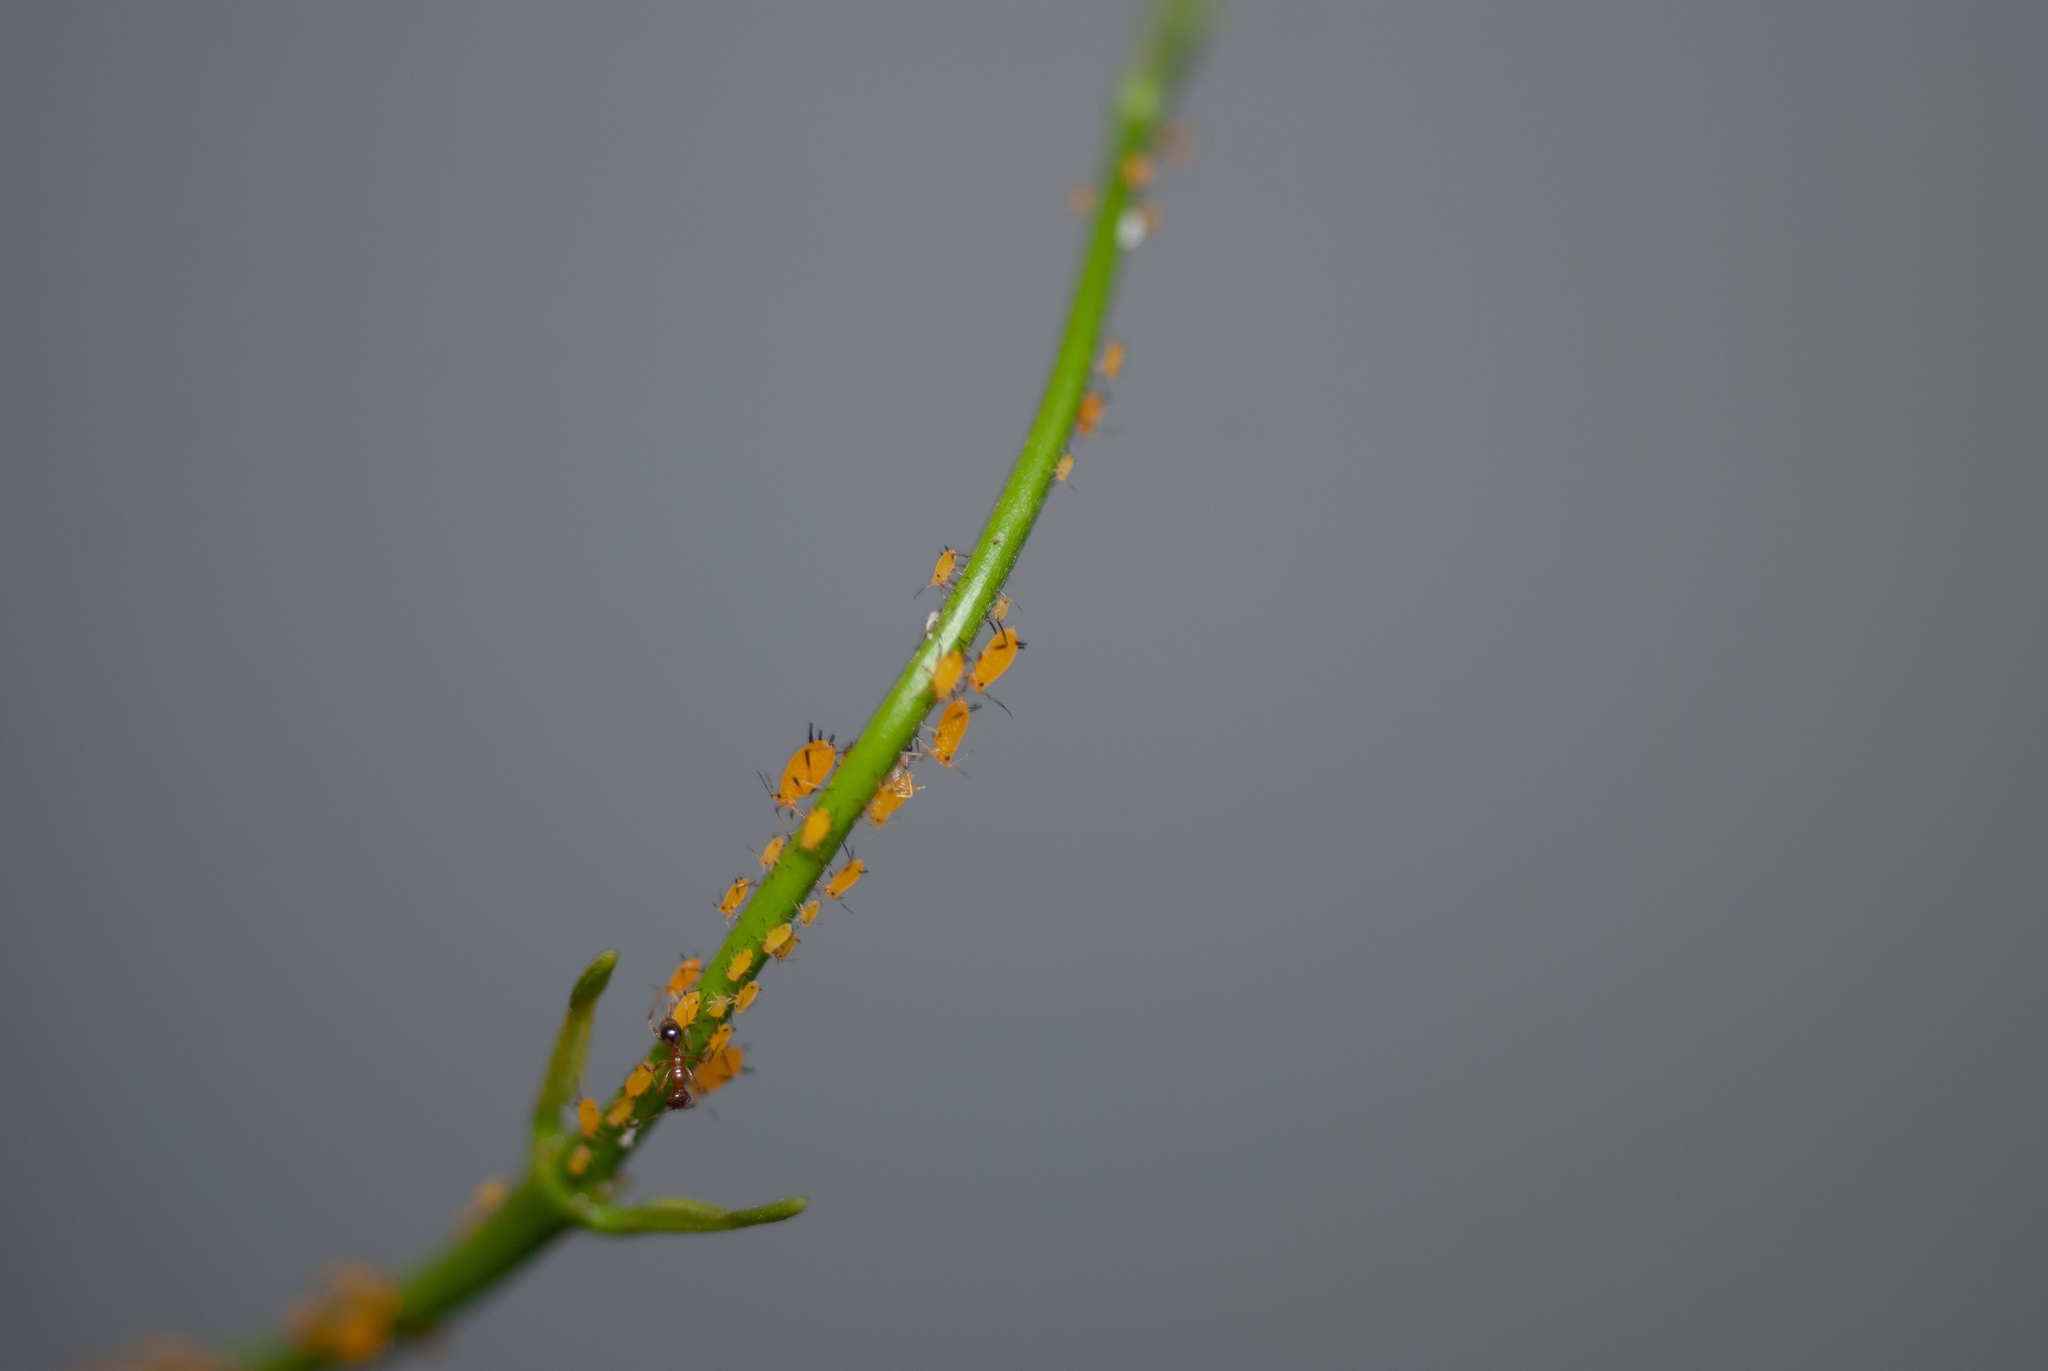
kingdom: Animalia
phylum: Arthropoda
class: Insecta
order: Hemiptera
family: Aphididae
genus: Aphis
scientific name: Aphis nerii
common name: Oleander aphid
